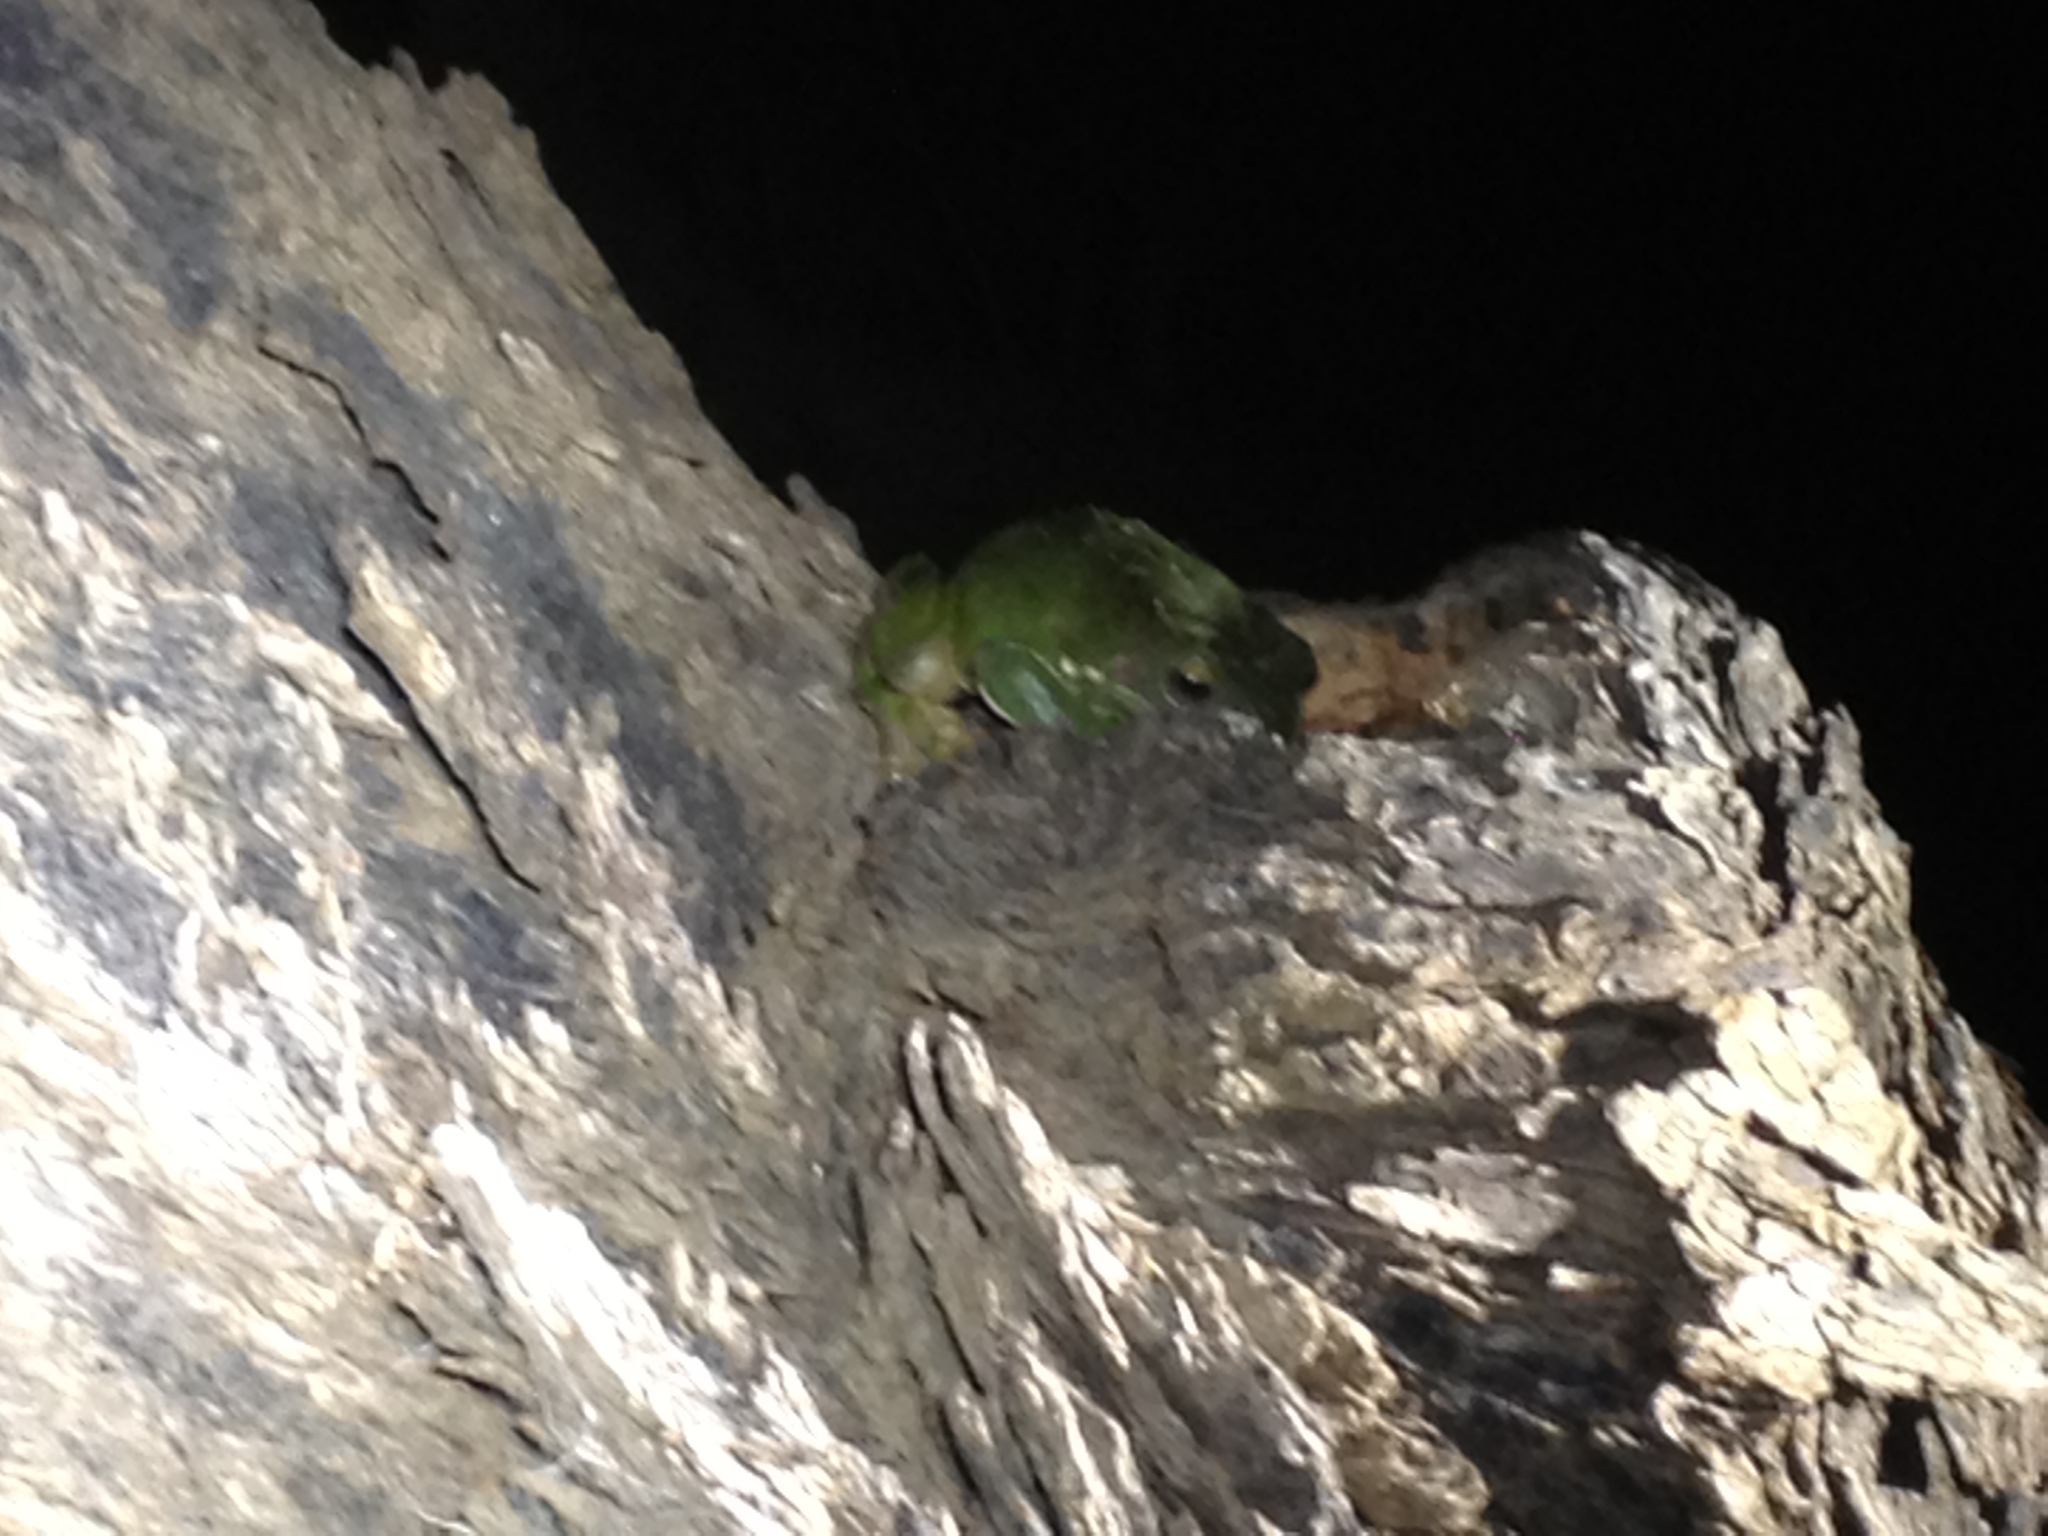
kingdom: Animalia
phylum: Chordata
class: Amphibia
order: Anura
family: Pelodryadidae
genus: Ranoidea
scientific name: Ranoidea caerulea
